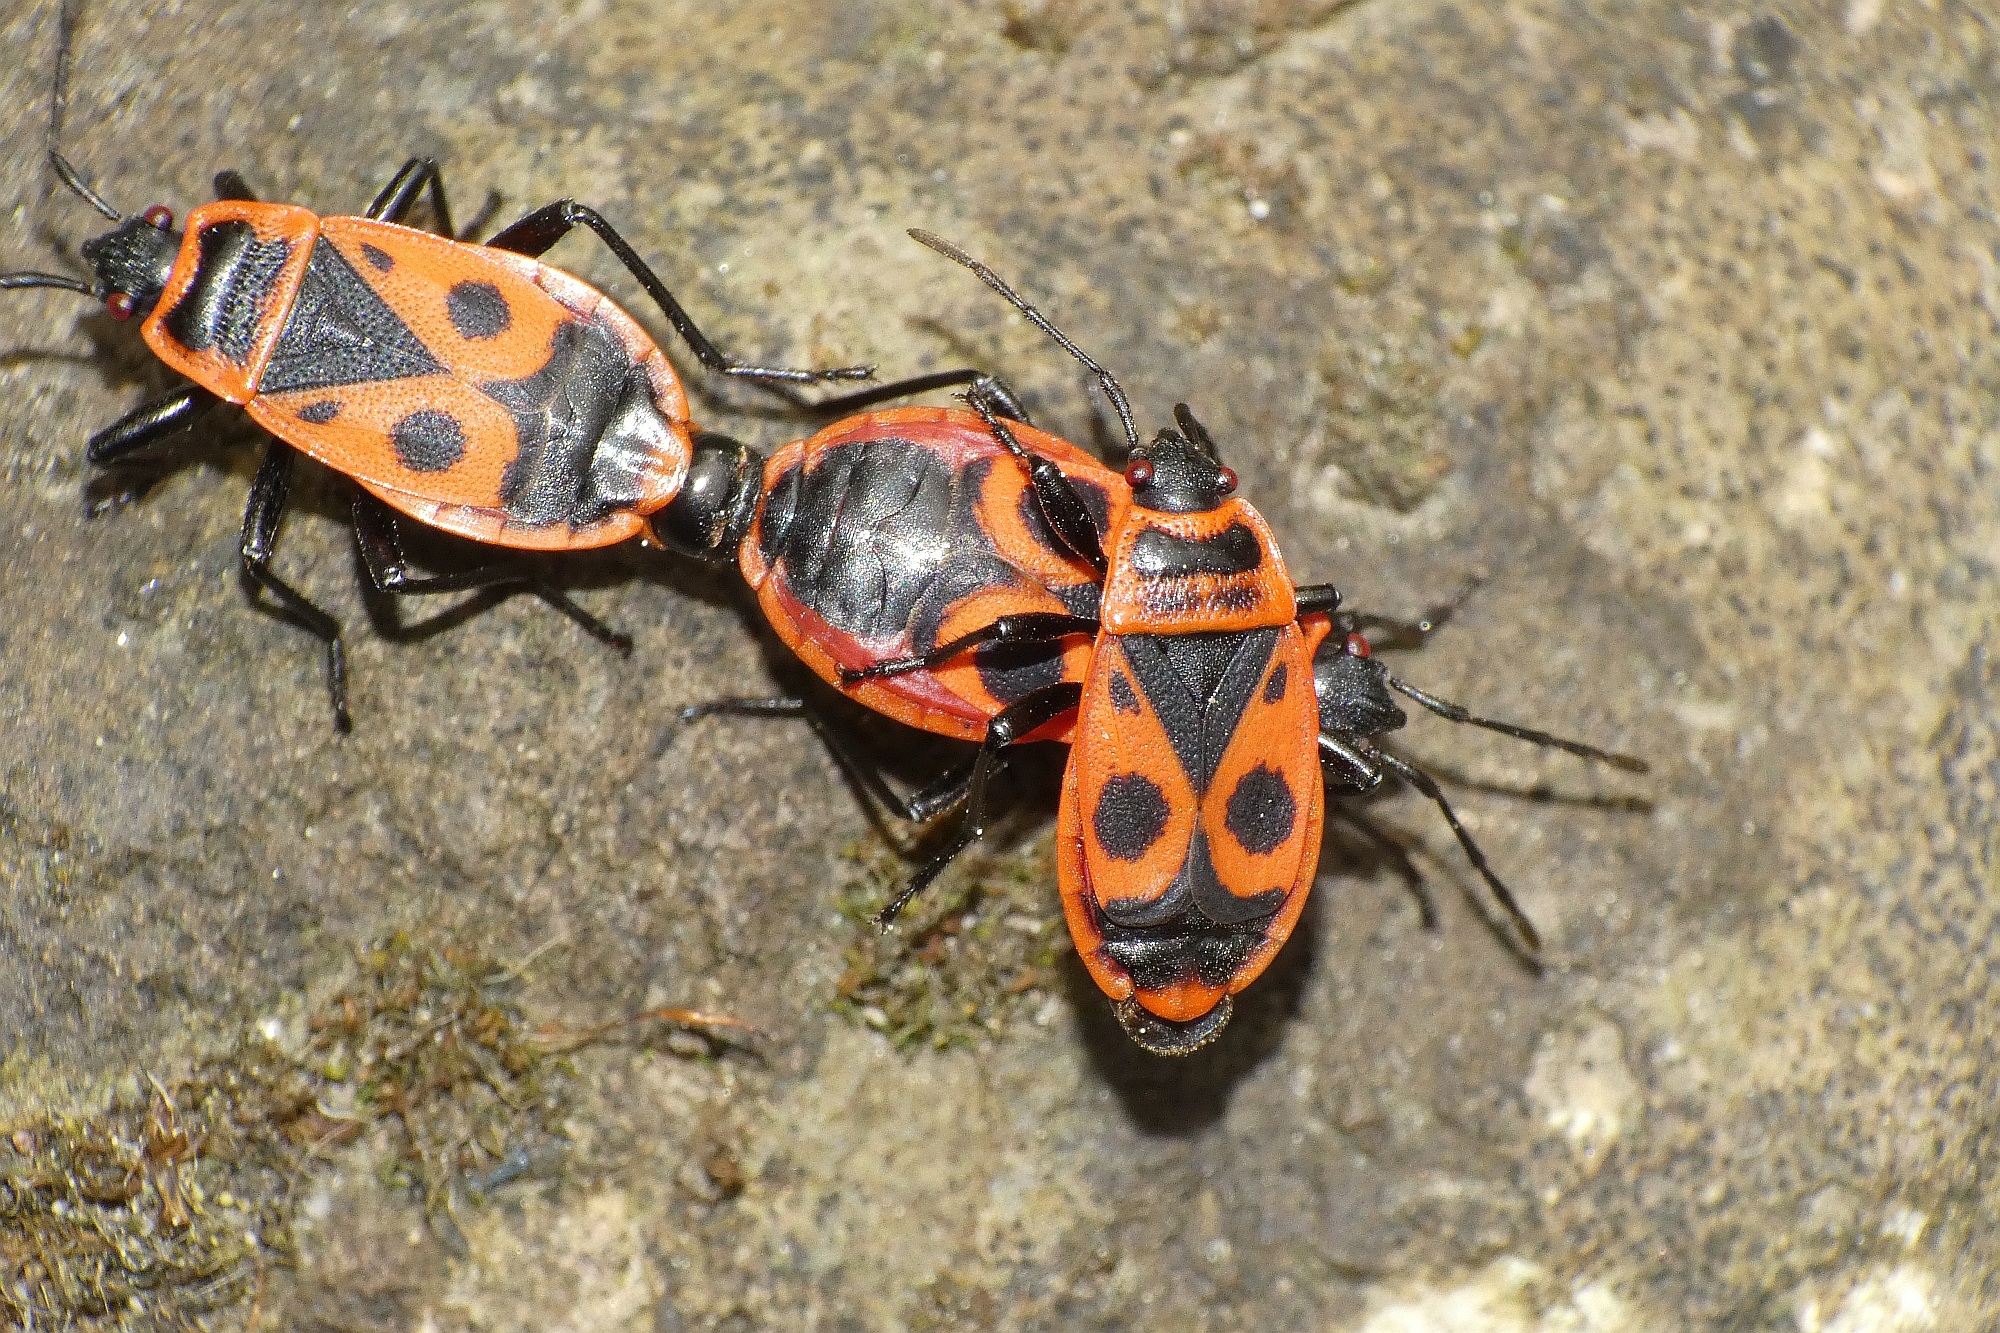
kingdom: Animalia
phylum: Arthropoda
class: Insecta
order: Hemiptera
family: Pyrrhocoridae
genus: Pyrrhocoris
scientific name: Pyrrhocoris apterus
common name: Firebug
